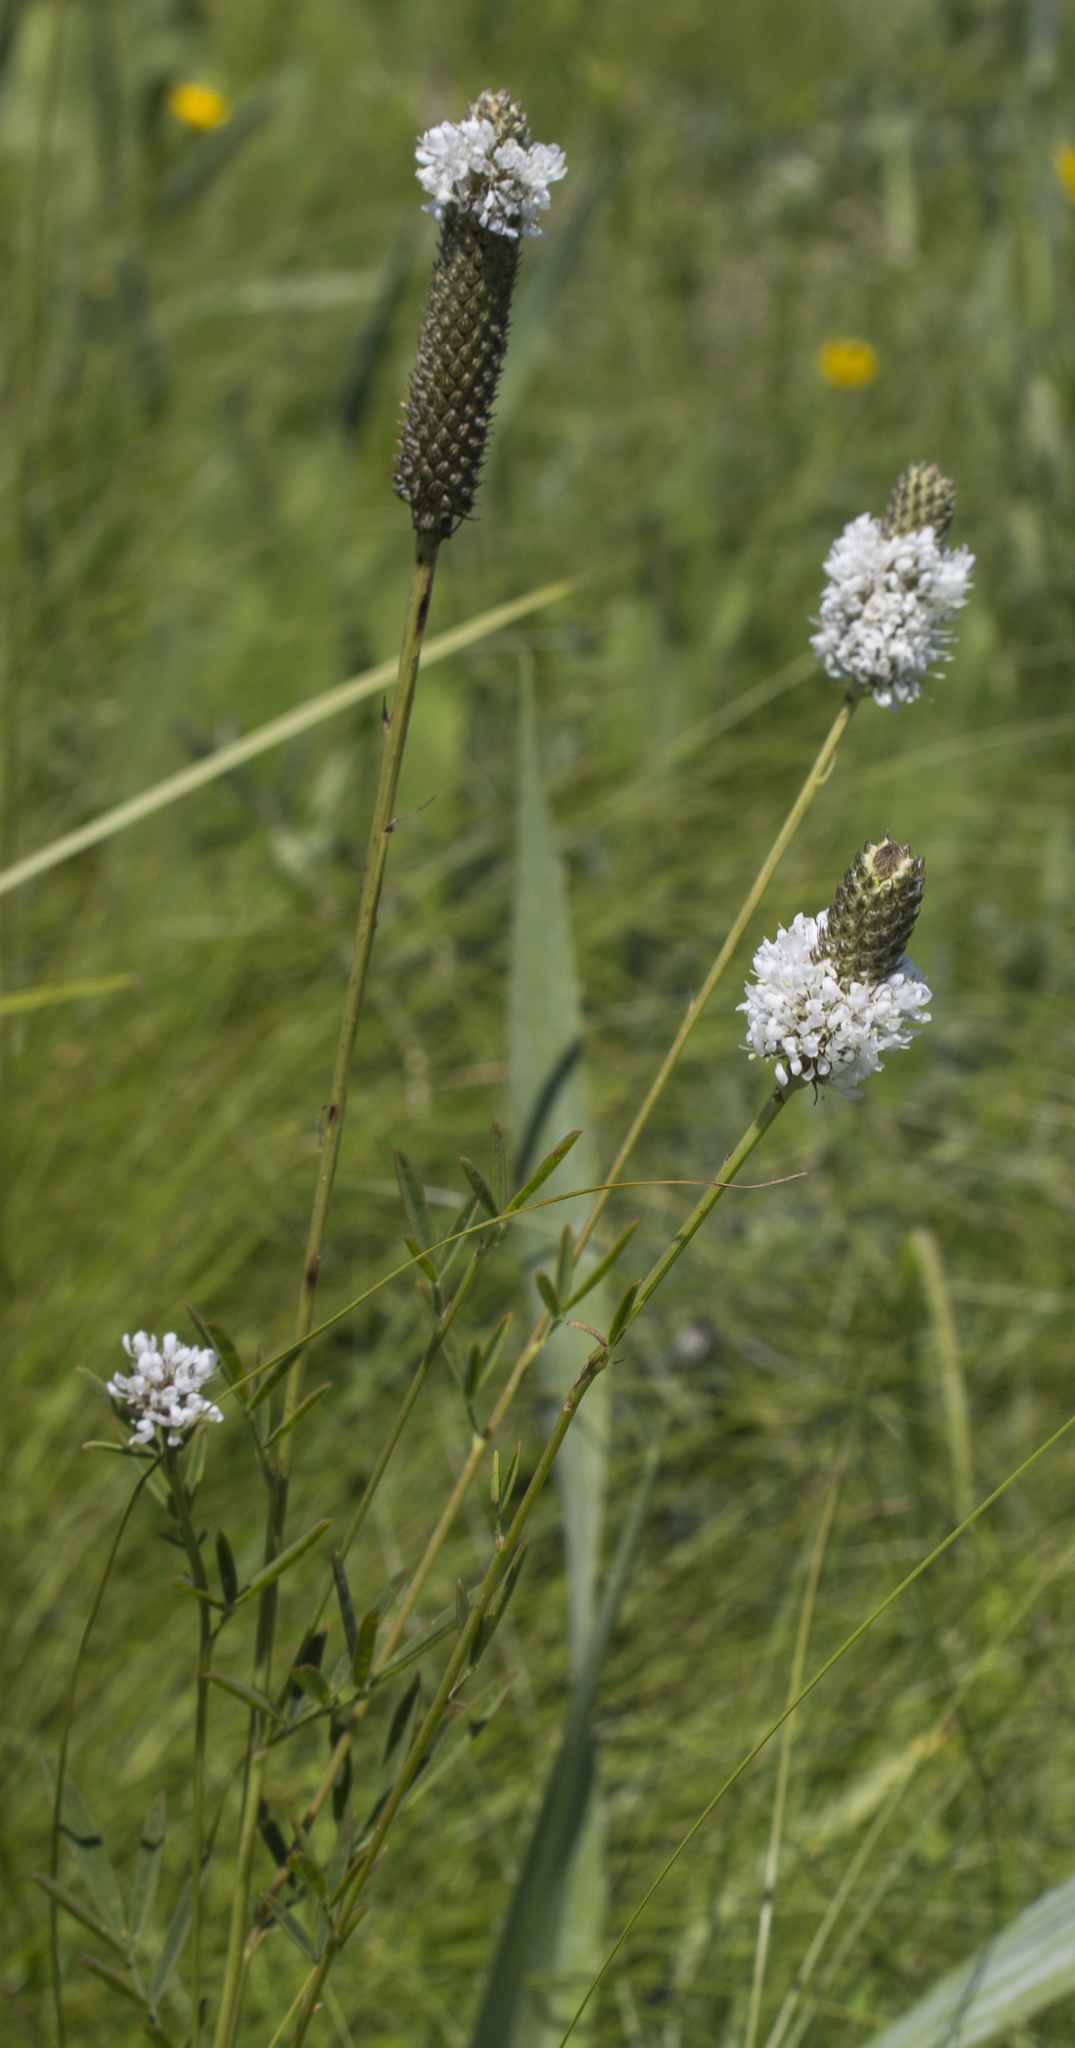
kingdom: Plantae
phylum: Tracheophyta
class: Magnoliopsida
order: Fabales
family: Fabaceae
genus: Dalea
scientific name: Dalea candida
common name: White prairie-clover
